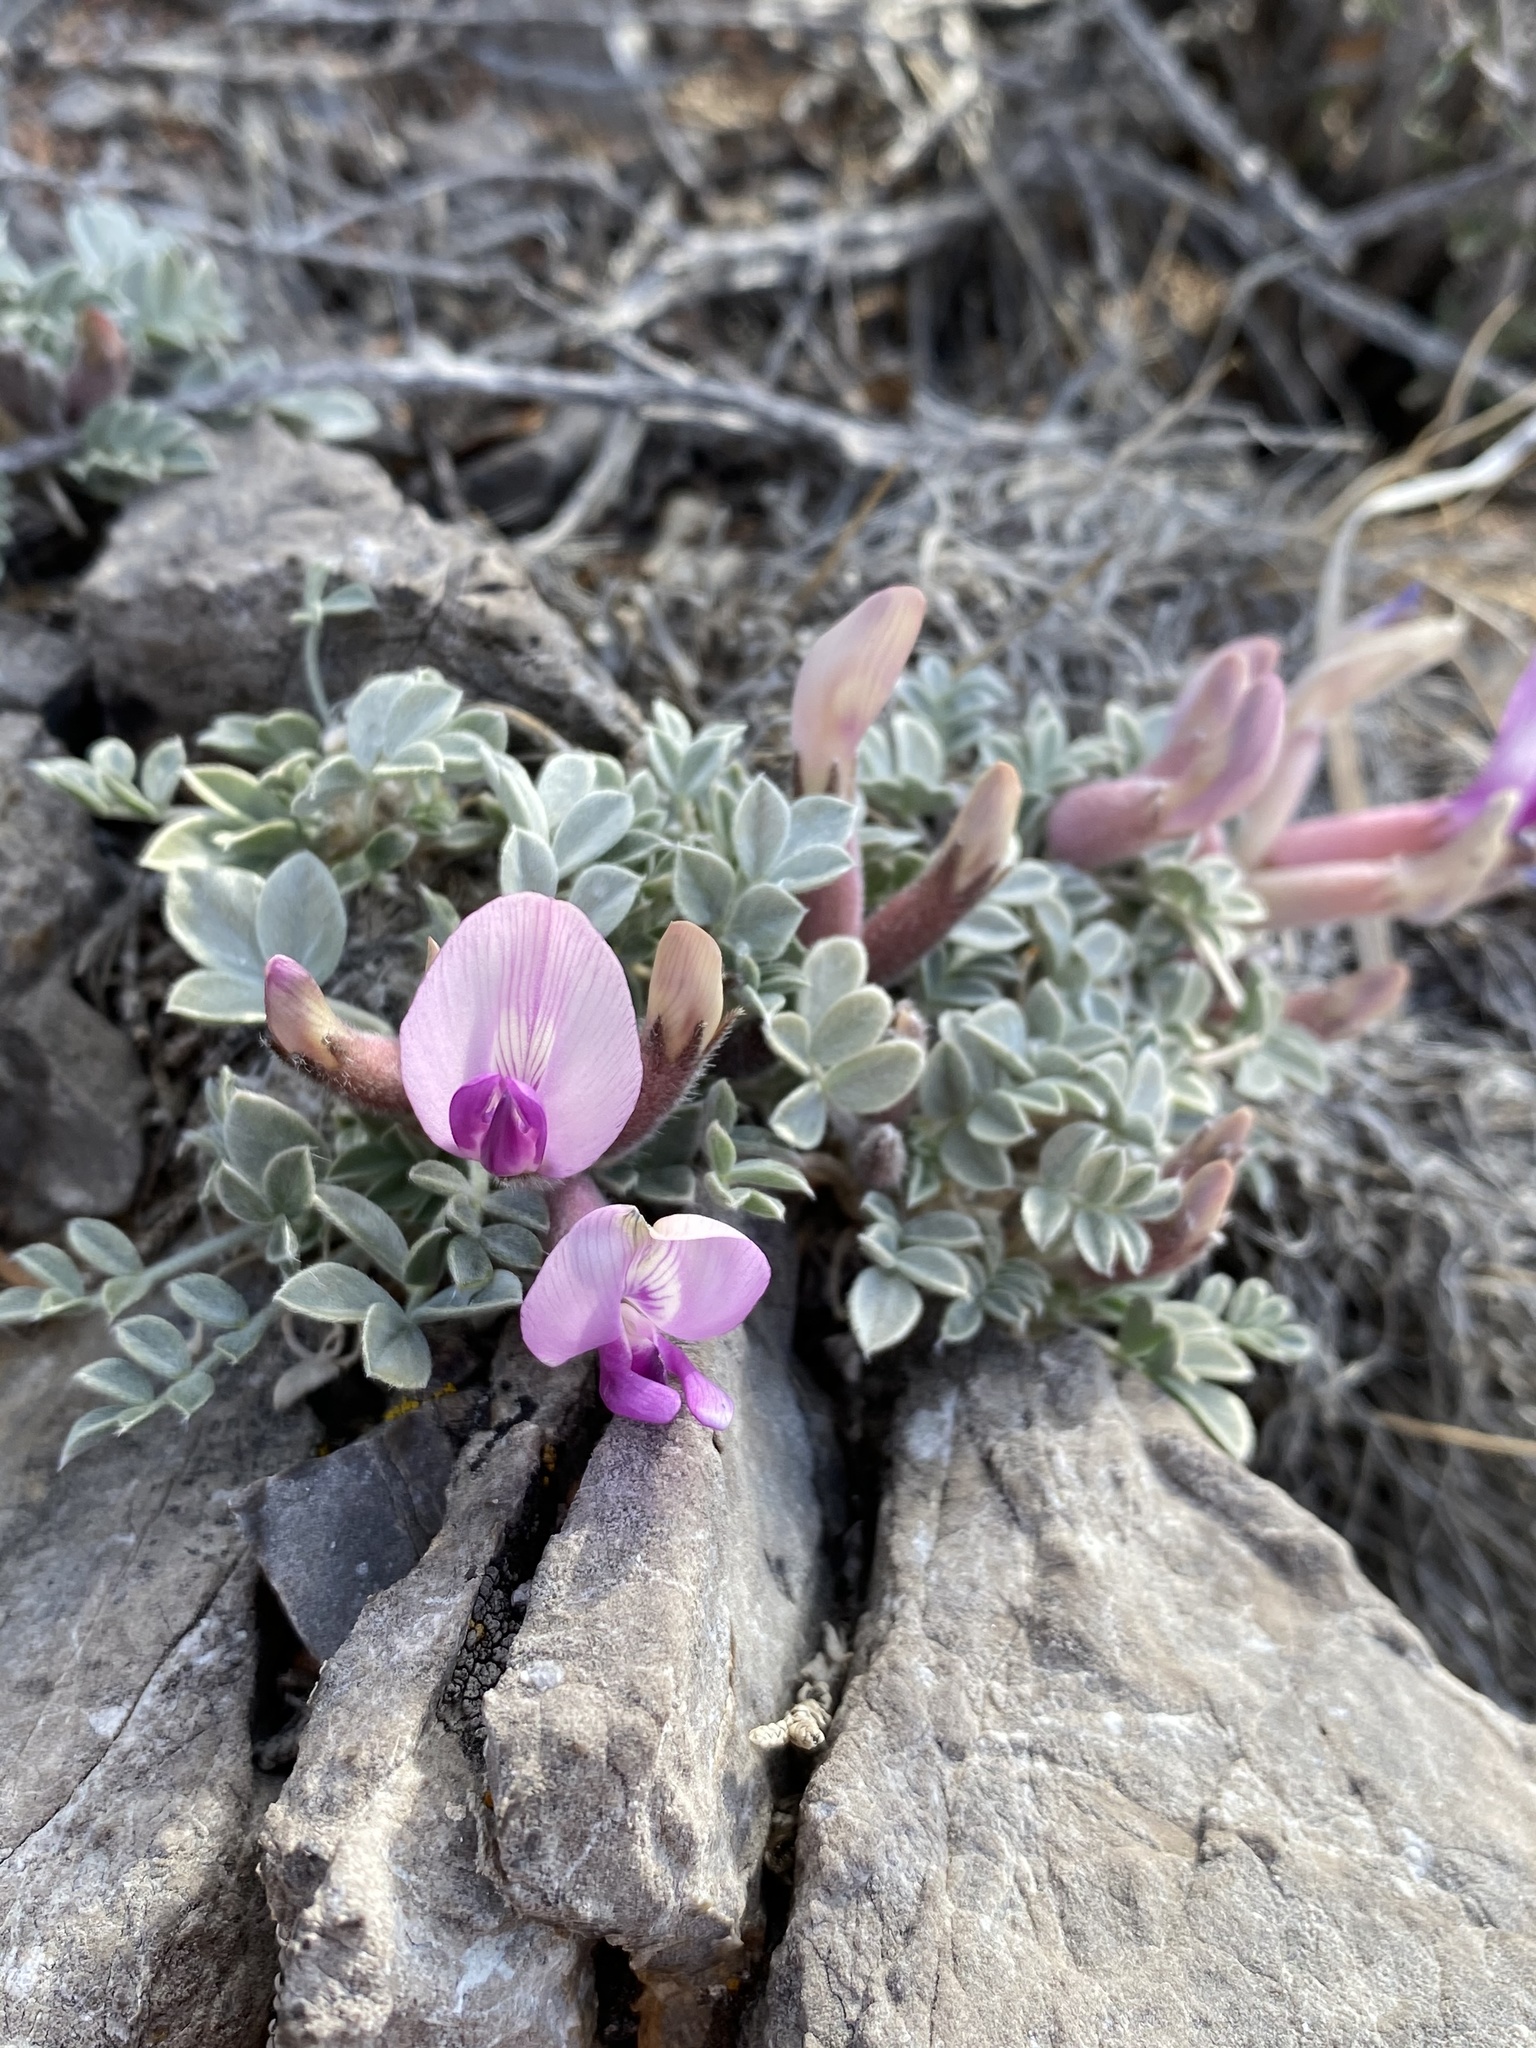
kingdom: Plantae
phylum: Tracheophyta
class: Magnoliopsida
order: Fabales
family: Fabaceae
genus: Astragalus
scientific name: Astragalus newberryi
